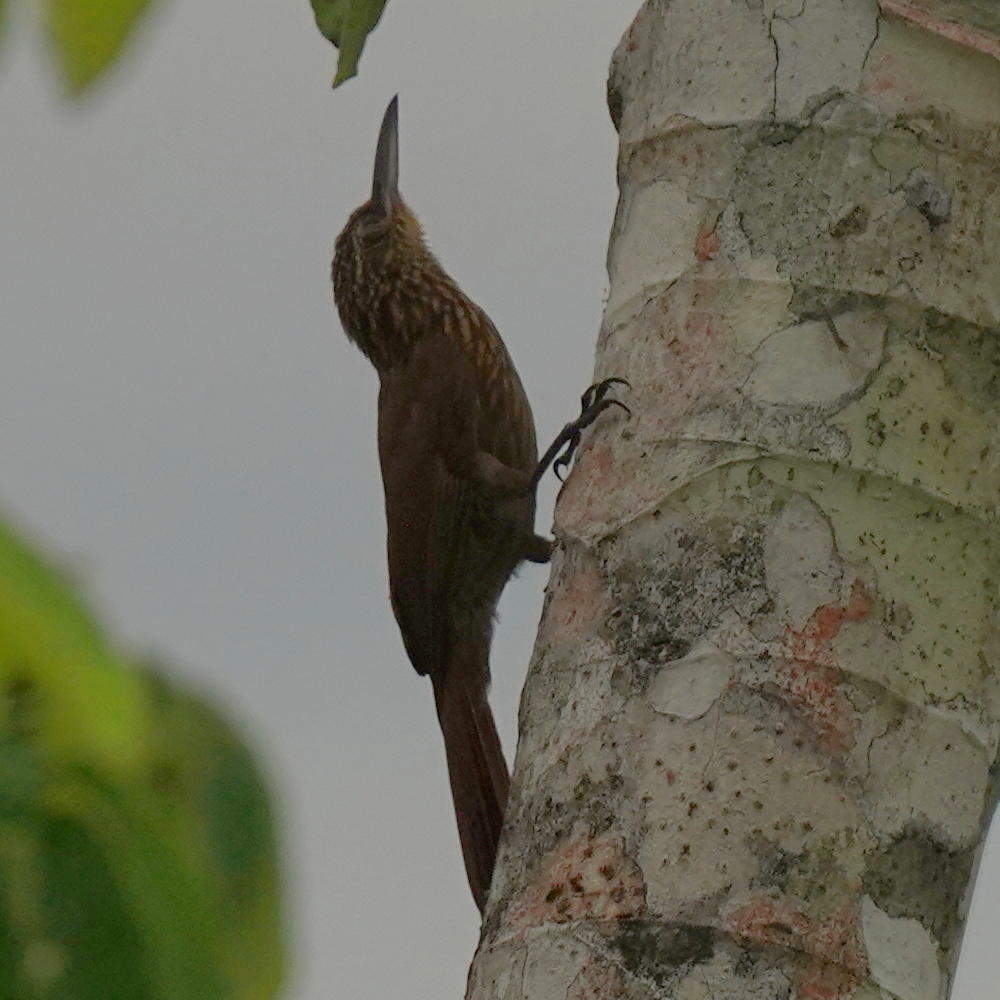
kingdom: Animalia
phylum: Chordata
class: Aves
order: Passeriformes
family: Furnariidae
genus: Xiphorhynchus
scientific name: Xiphorhynchus susurrans
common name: Cocoa woodcreeper
